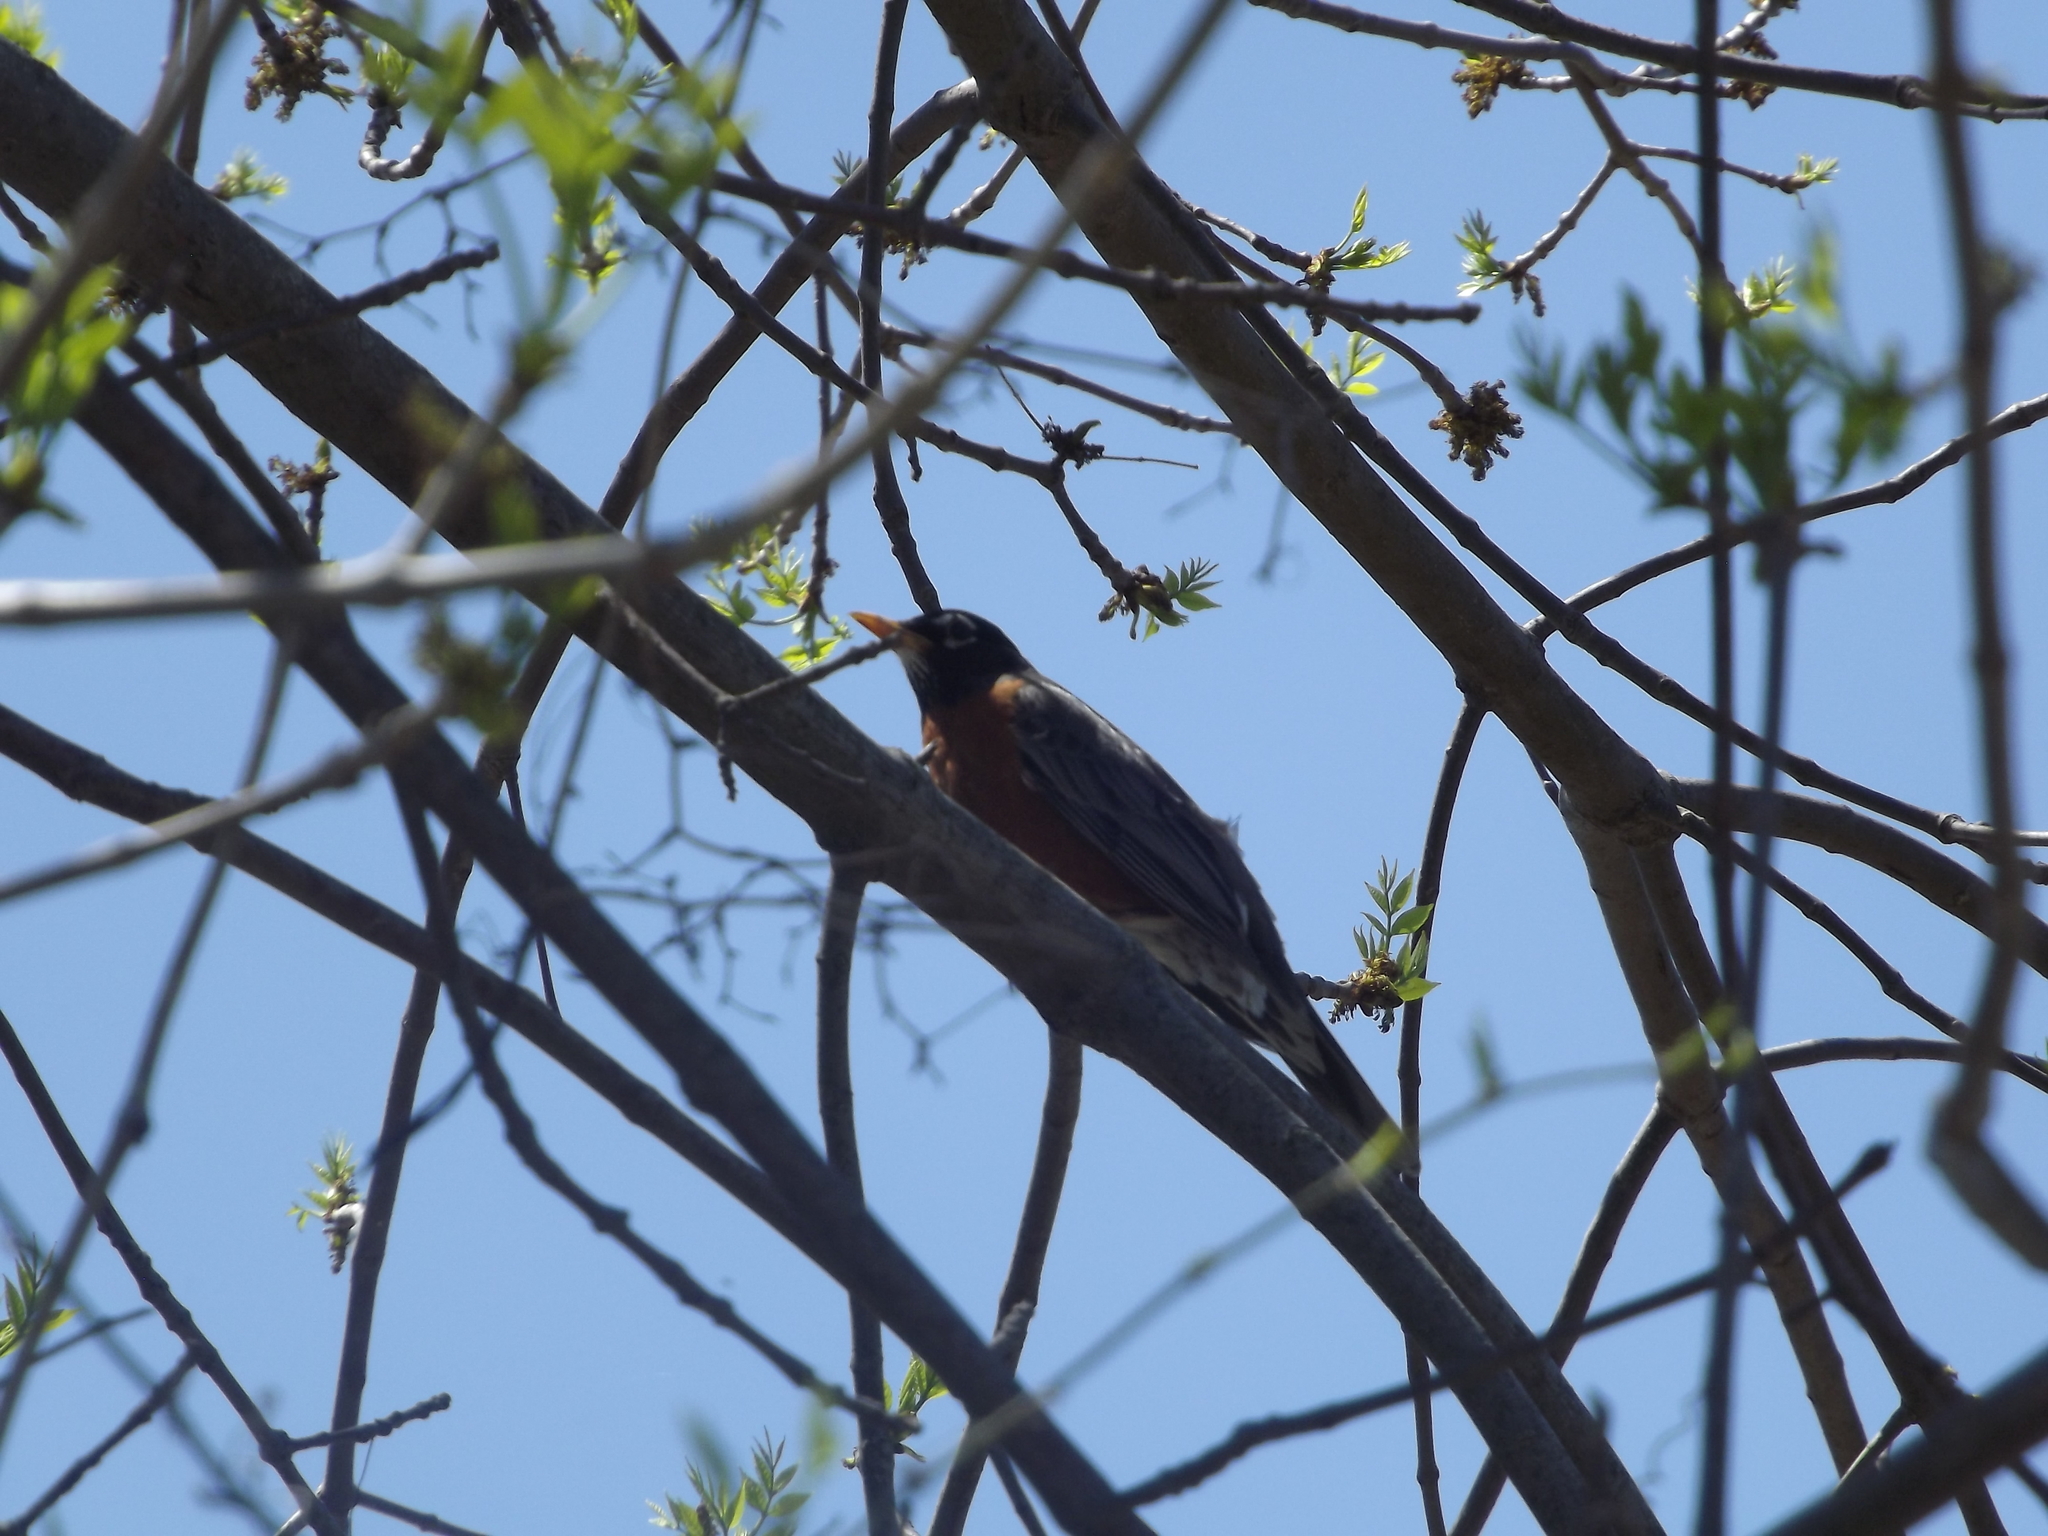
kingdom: Animalia
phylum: Chordata
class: Aves
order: Passeriformes
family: Turdidae
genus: Turdus
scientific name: Turdus migratorius
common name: American robin
